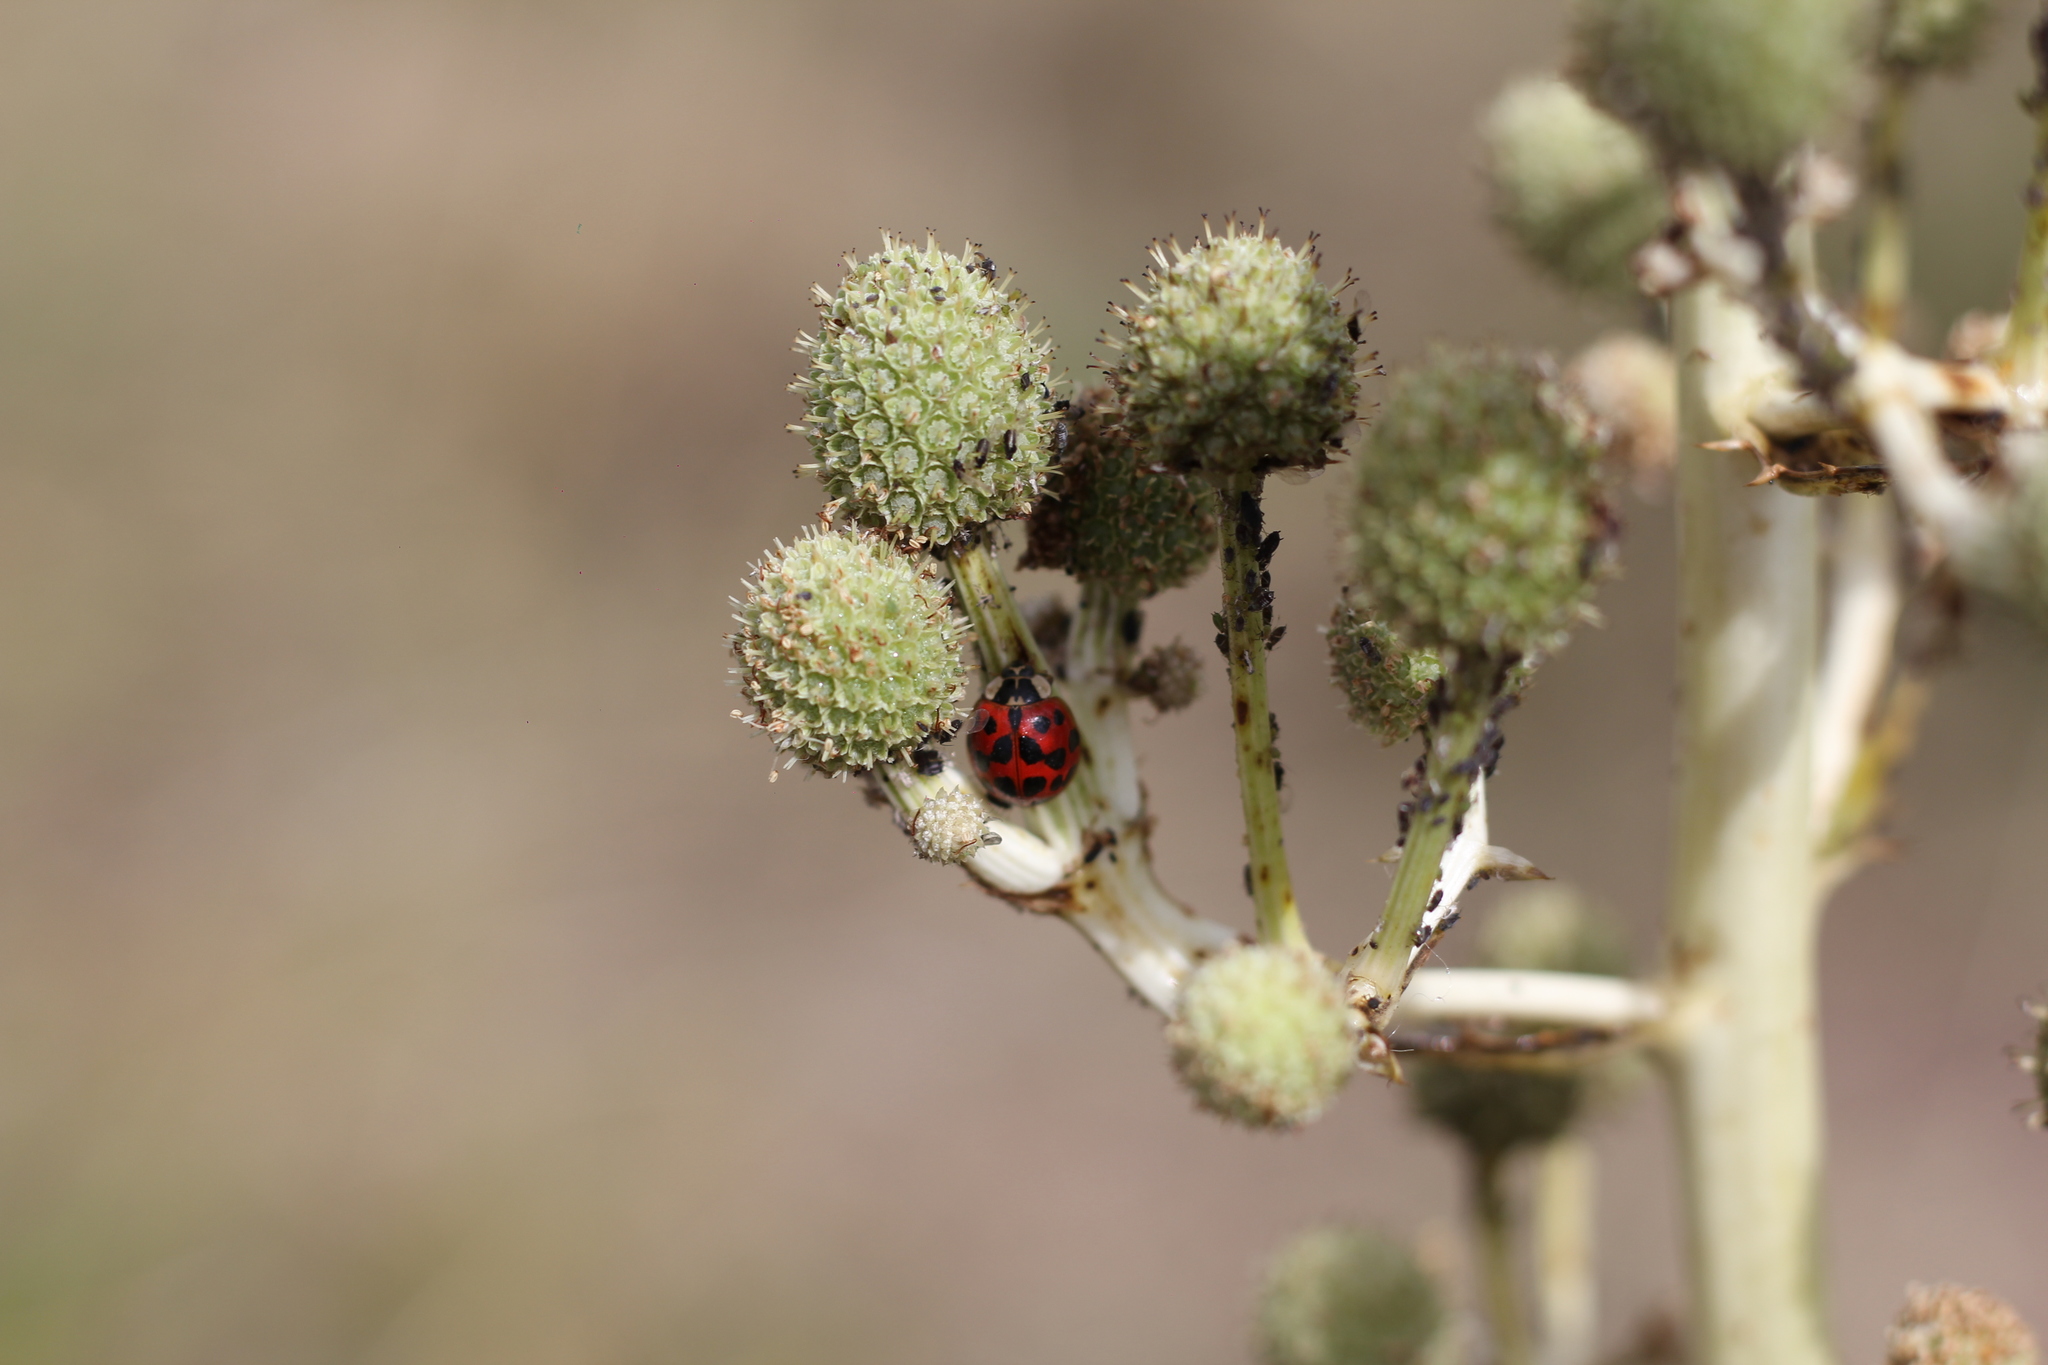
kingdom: Animalia
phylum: Arthropoda
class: Insecta
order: Coleoptera
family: Coccinellidae
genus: Harmonia
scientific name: Harmonia axyridis
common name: Harlequin ladybird
